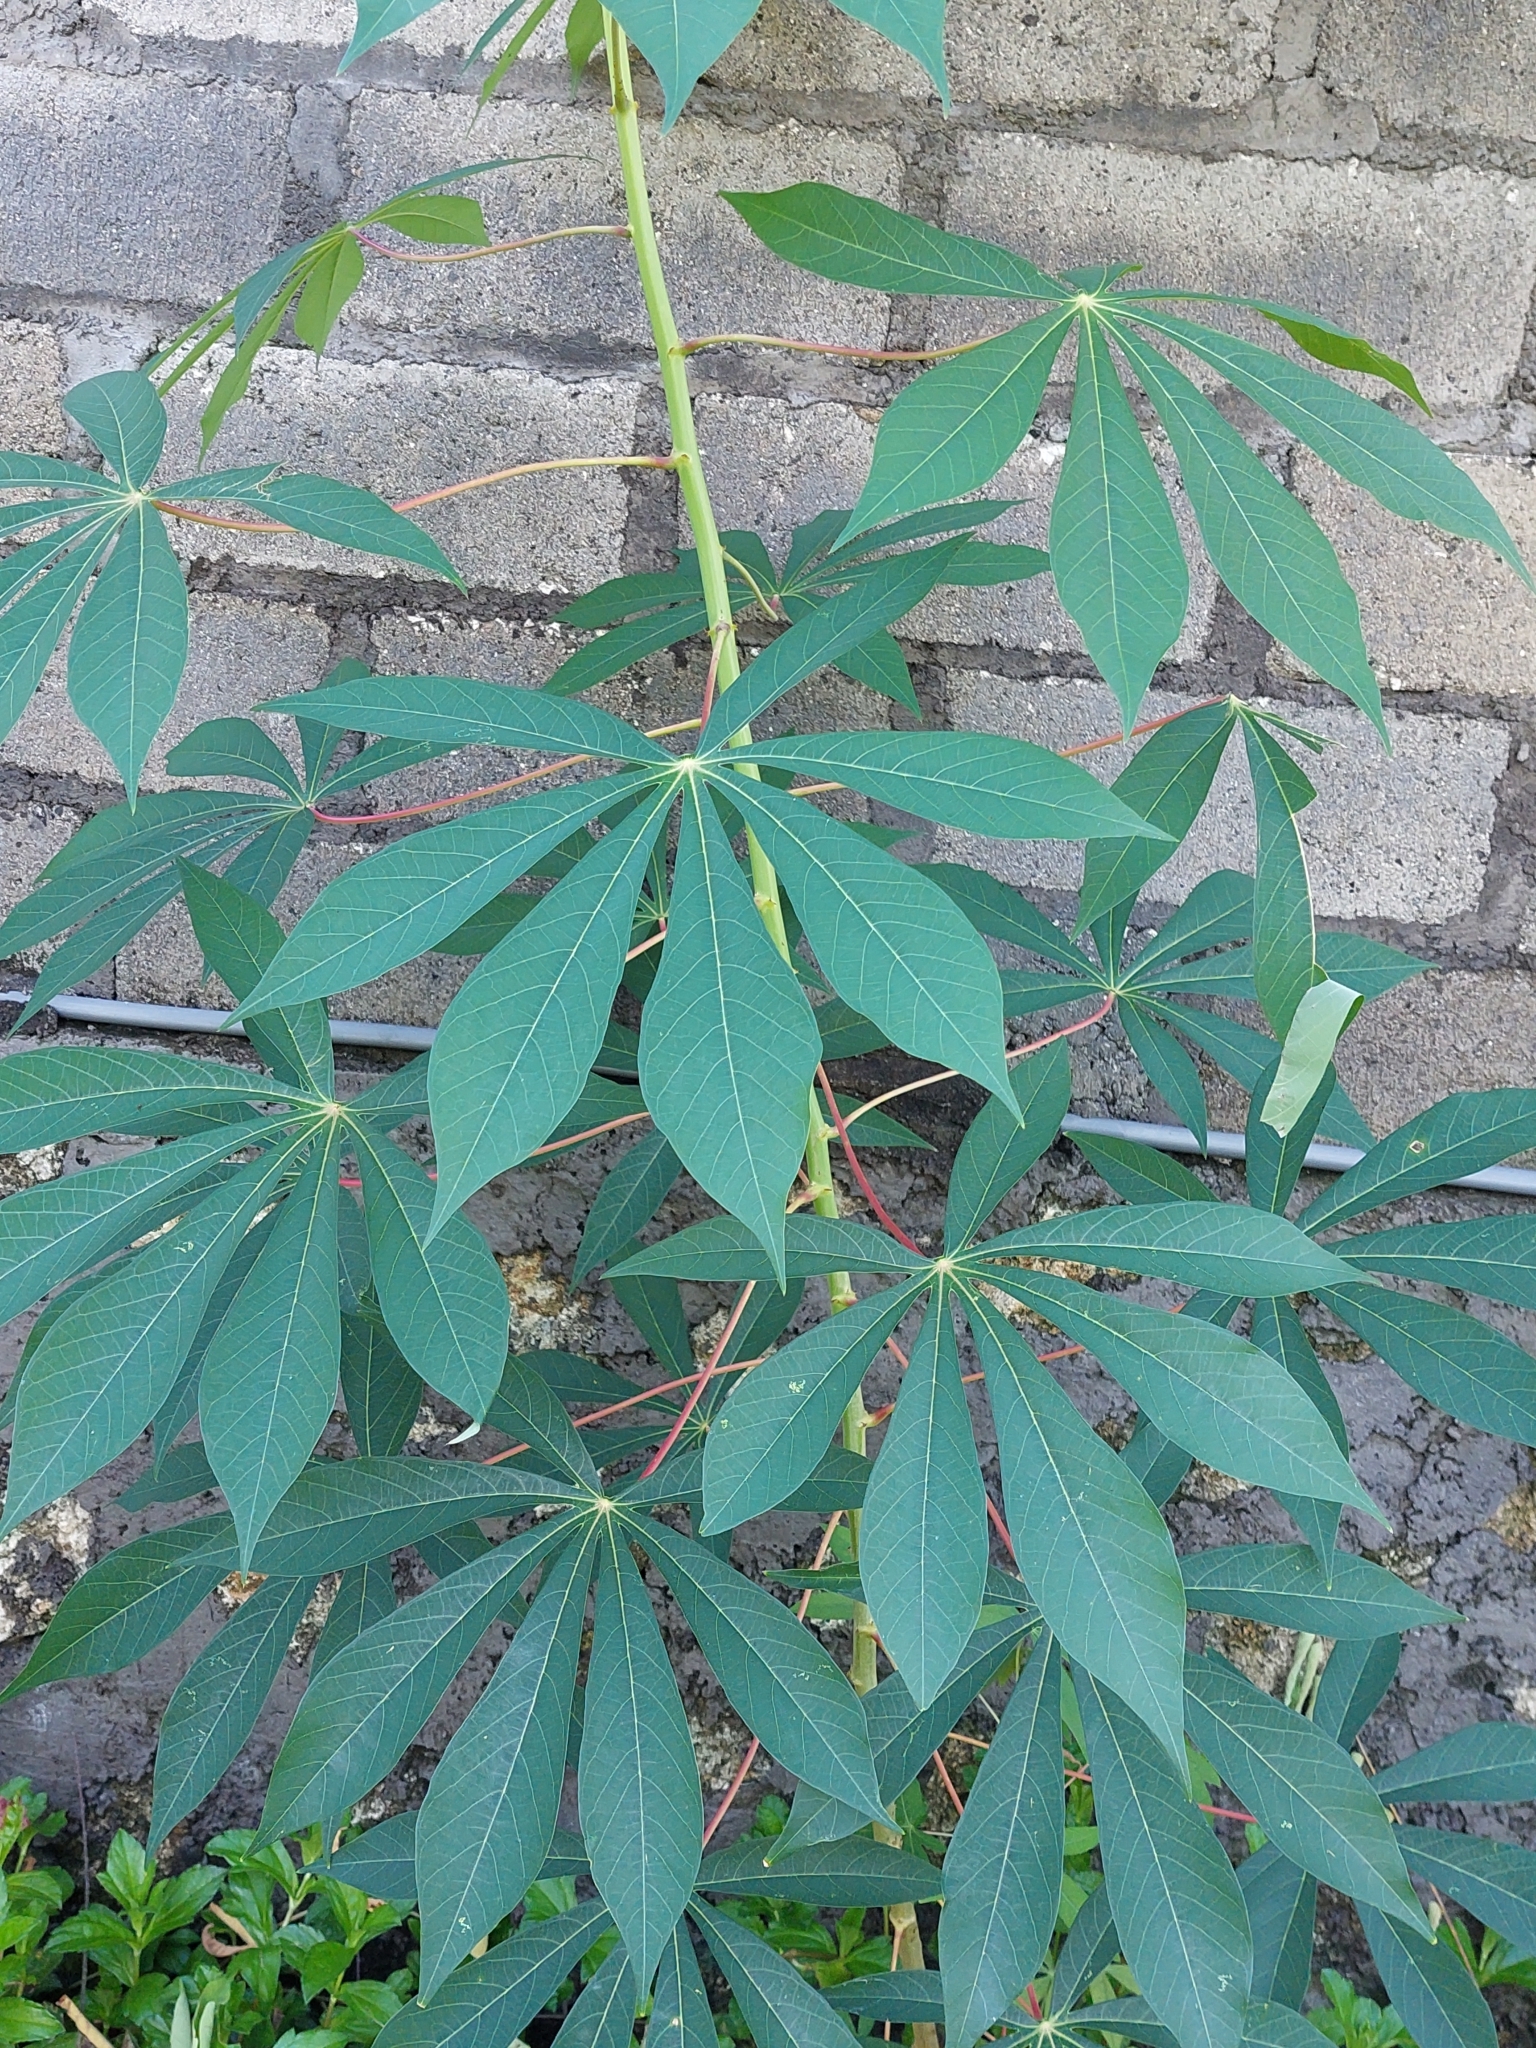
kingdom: Plantae
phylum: Tracheophyta
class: Magnoliopsida
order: Malpighiales
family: Euphorbiaceae
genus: Manihot
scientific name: Manihot esculenta
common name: Cassava
